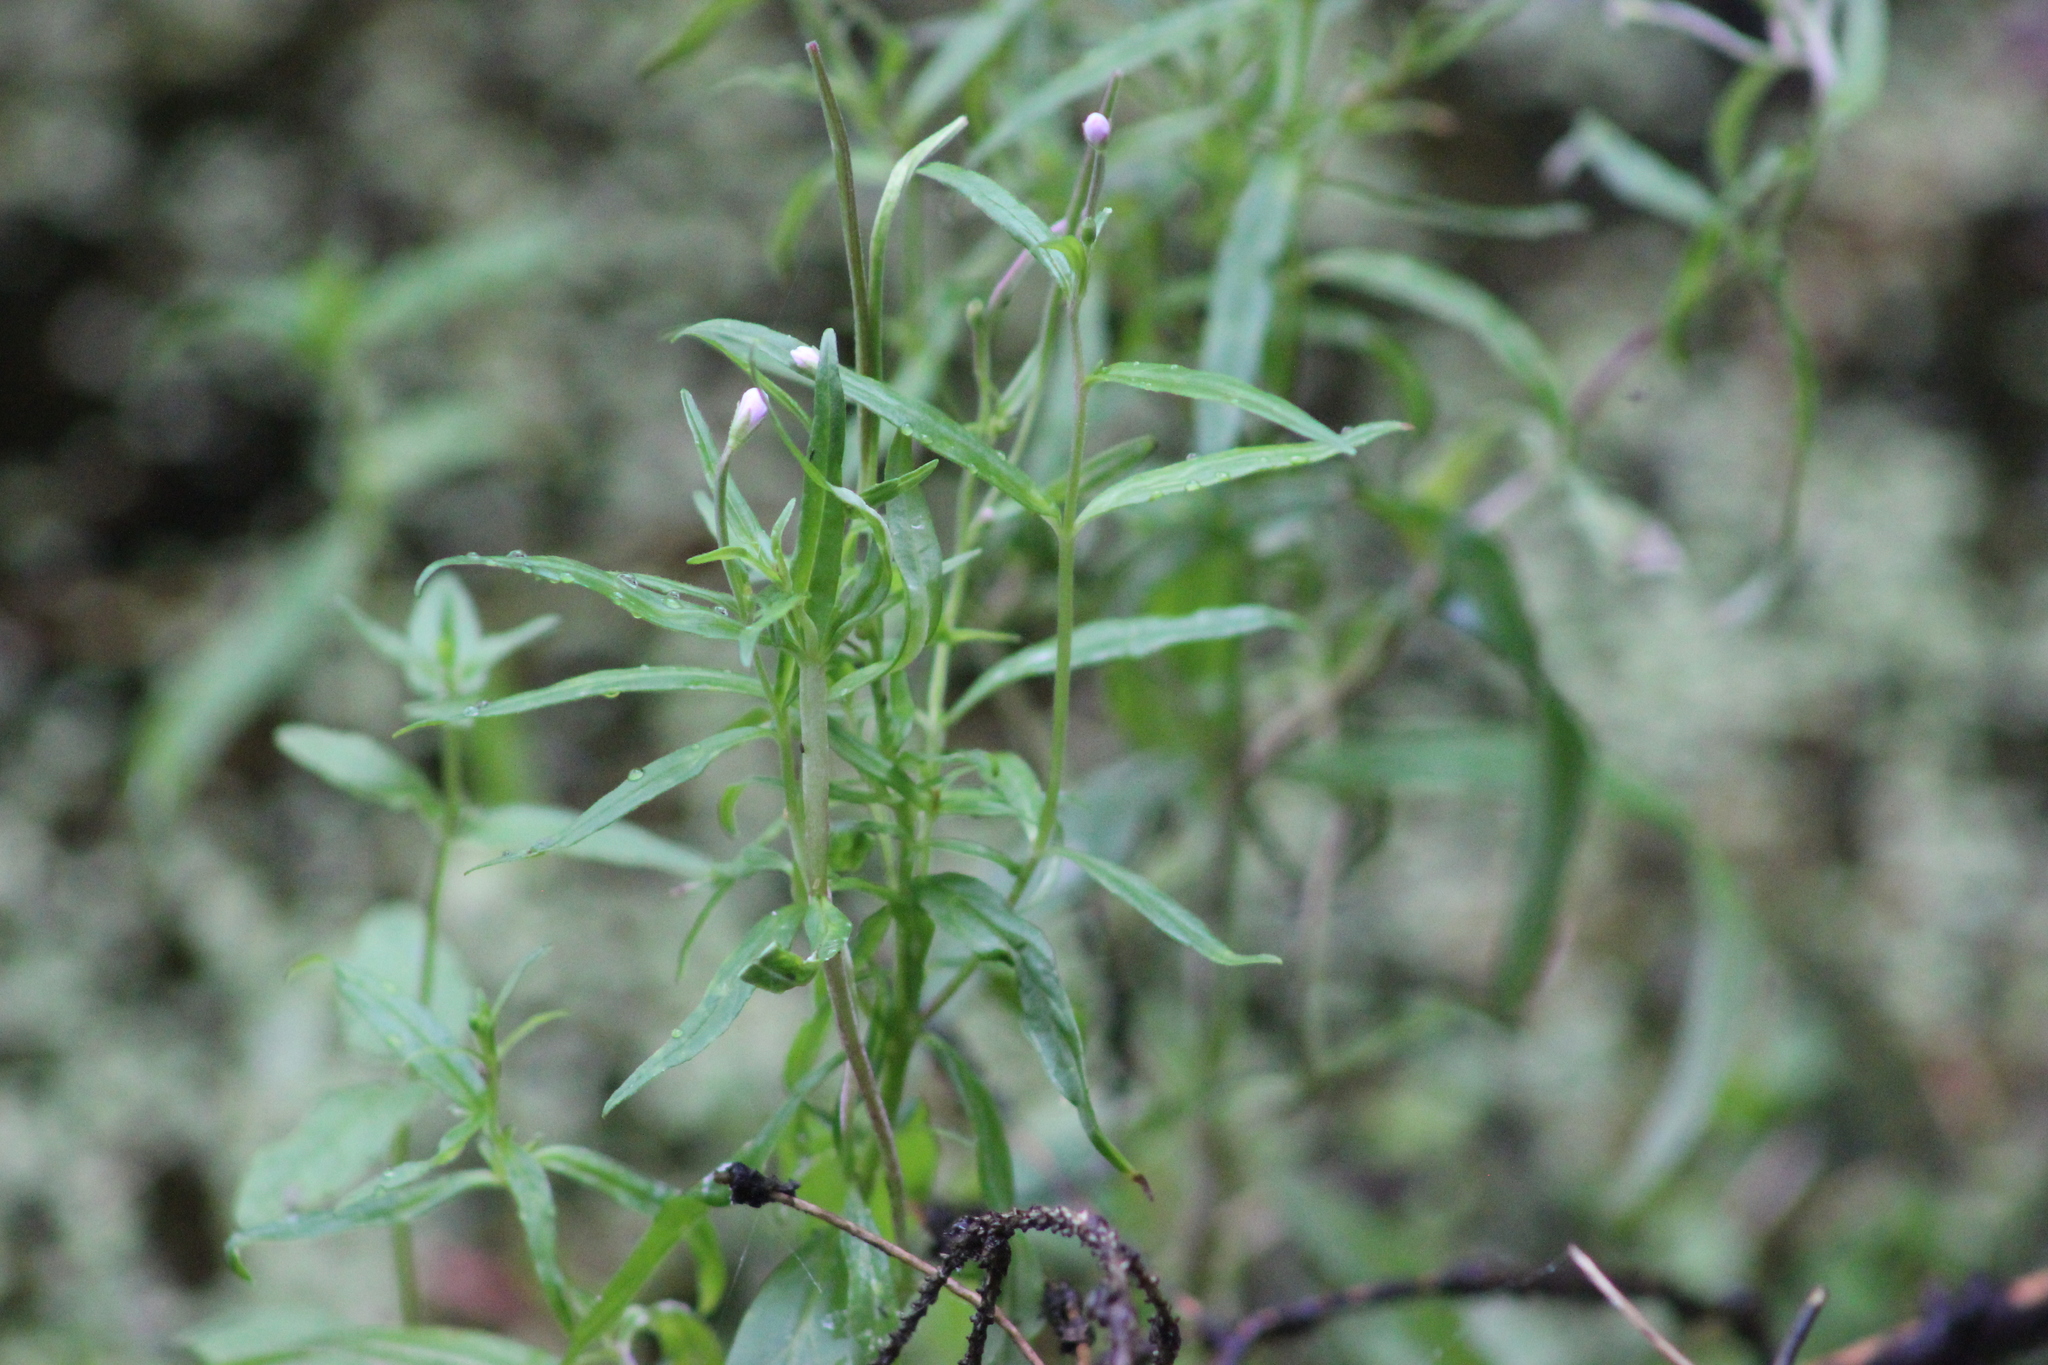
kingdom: Plantae
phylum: Tracheophyta
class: Magnoliopsida
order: Myrtales
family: Onagraceae
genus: Epilobium
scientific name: Epilobium palustre
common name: Marsh willowherb
